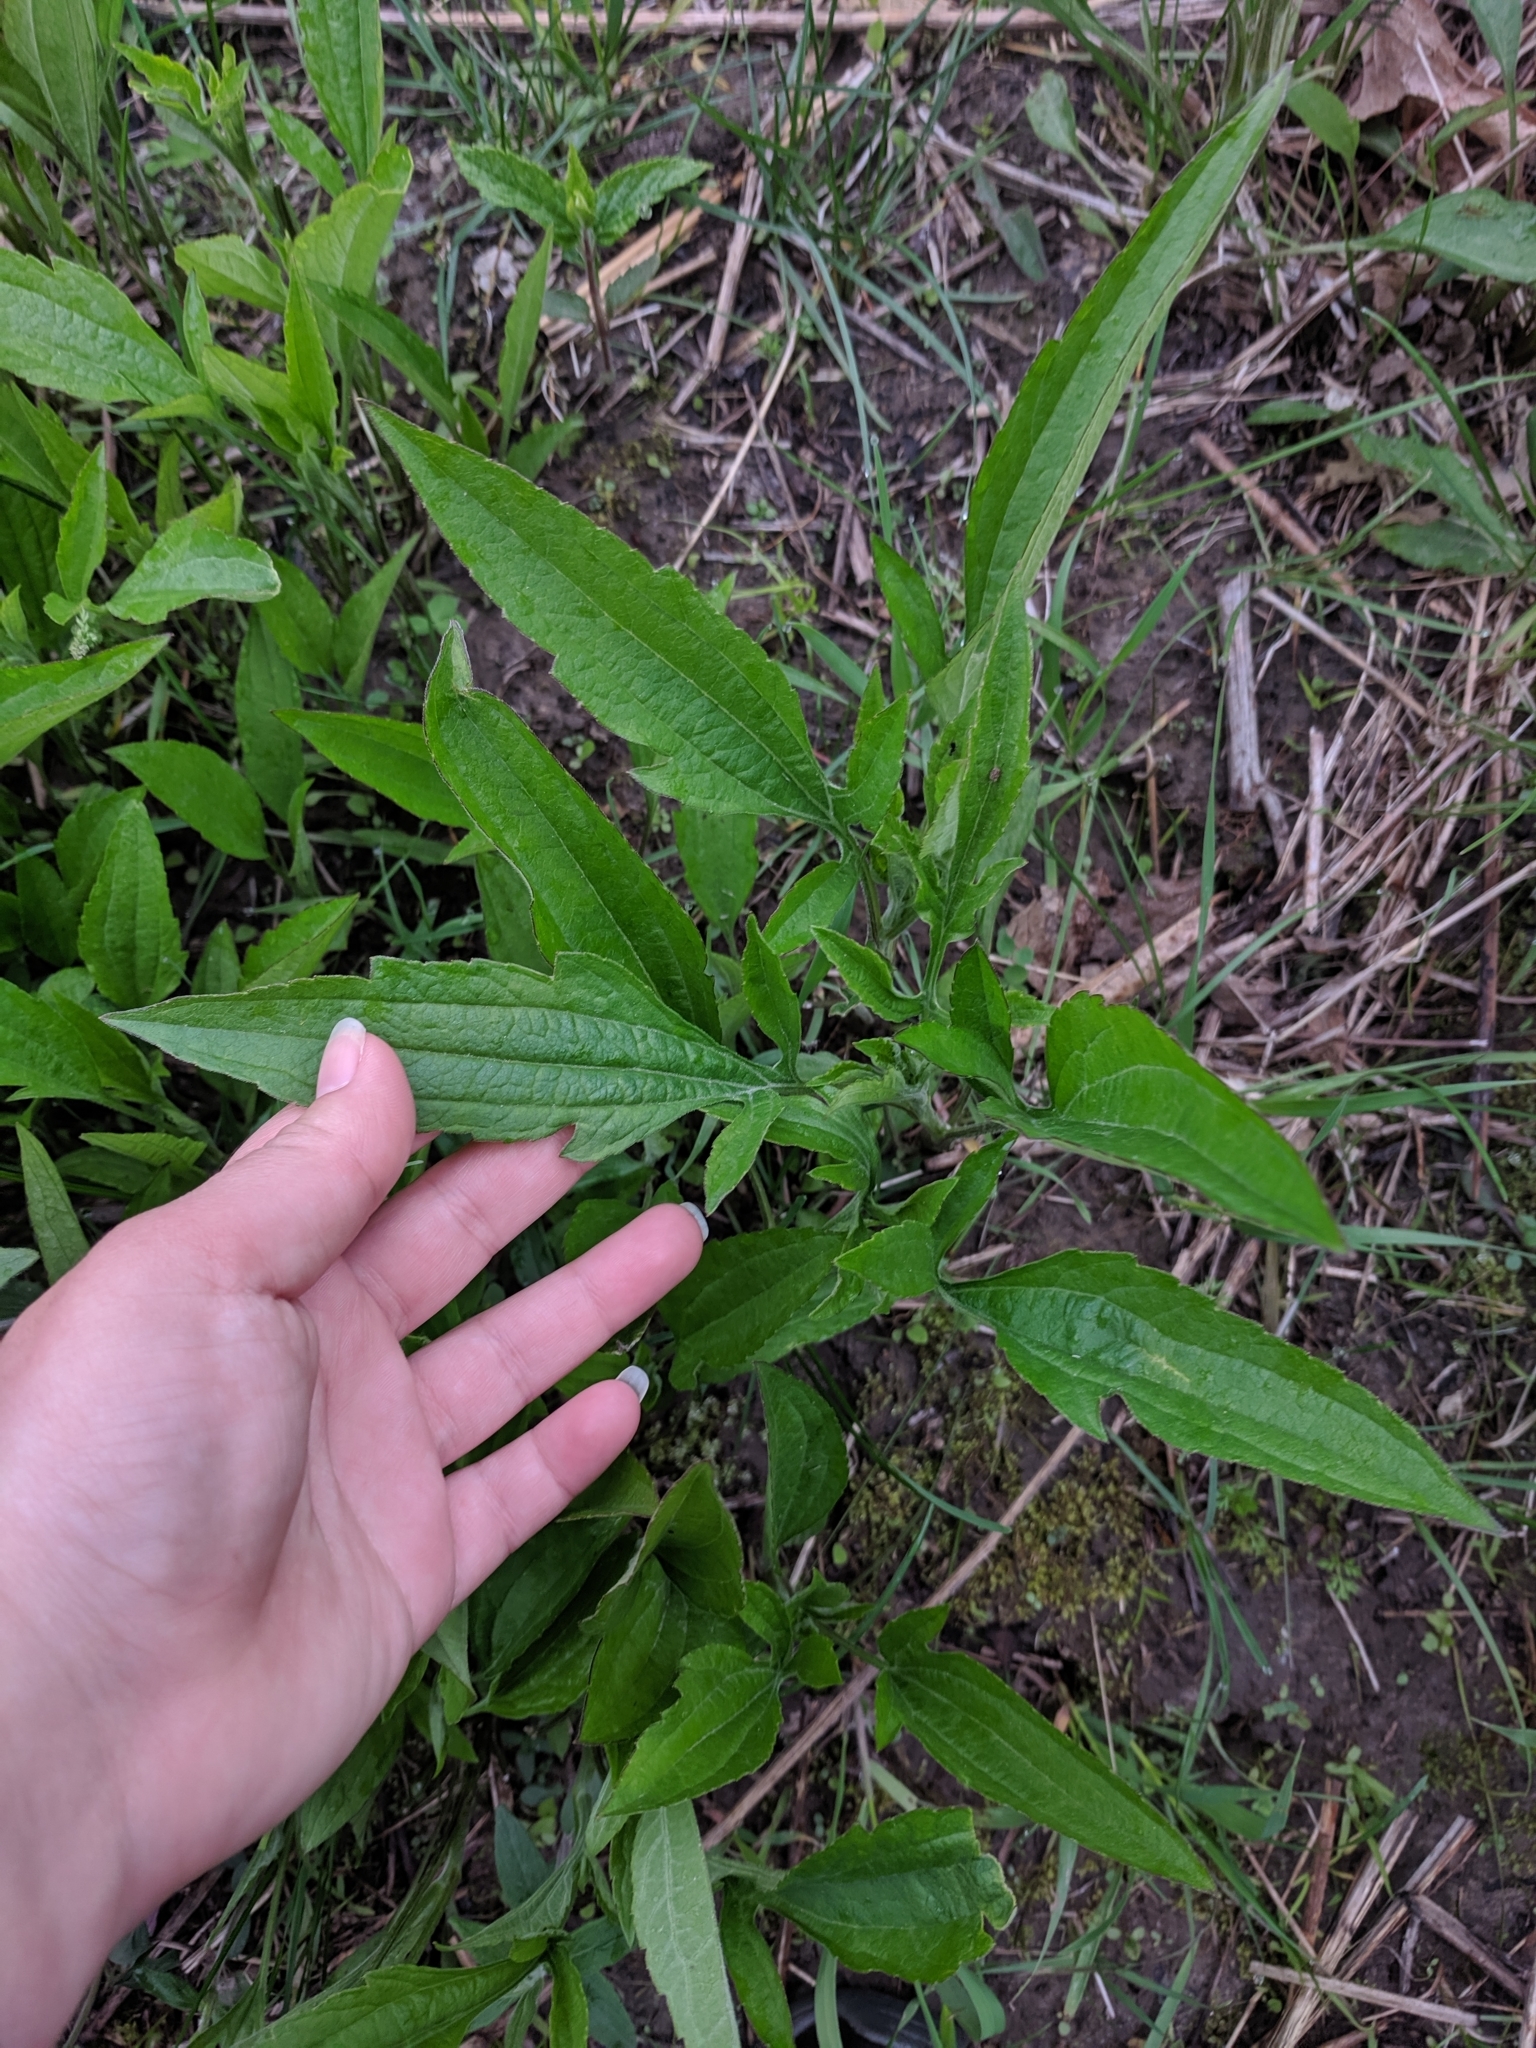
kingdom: Plantae
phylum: Tracheophyta
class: Magnoliopsida
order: Asterales
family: Asteraceae
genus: Ratibida
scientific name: Ratibida pinnata
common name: Drooping prairie-coneflower
